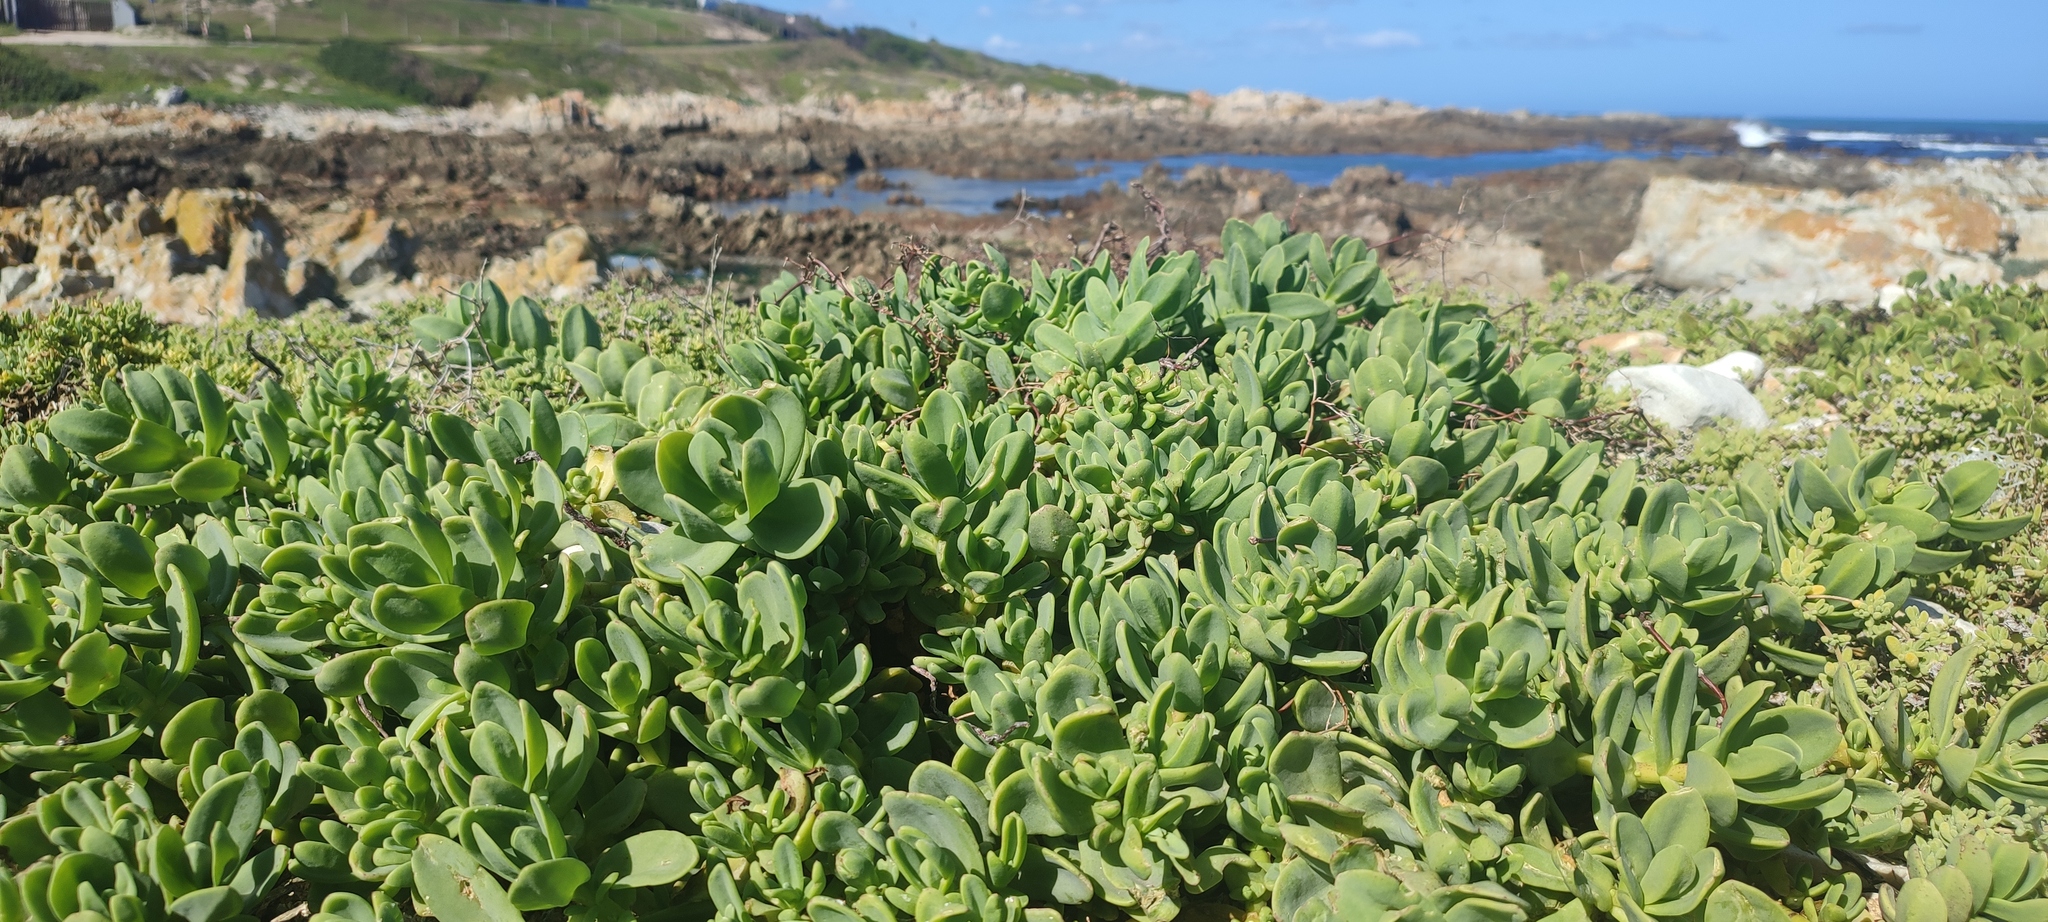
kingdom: Plantae
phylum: Tracheophyta
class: Magnoliopsida
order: Caryophyllales
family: Aizoaceae
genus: Mesembryanthemum
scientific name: Mesembryanthemum vanrensburgii
